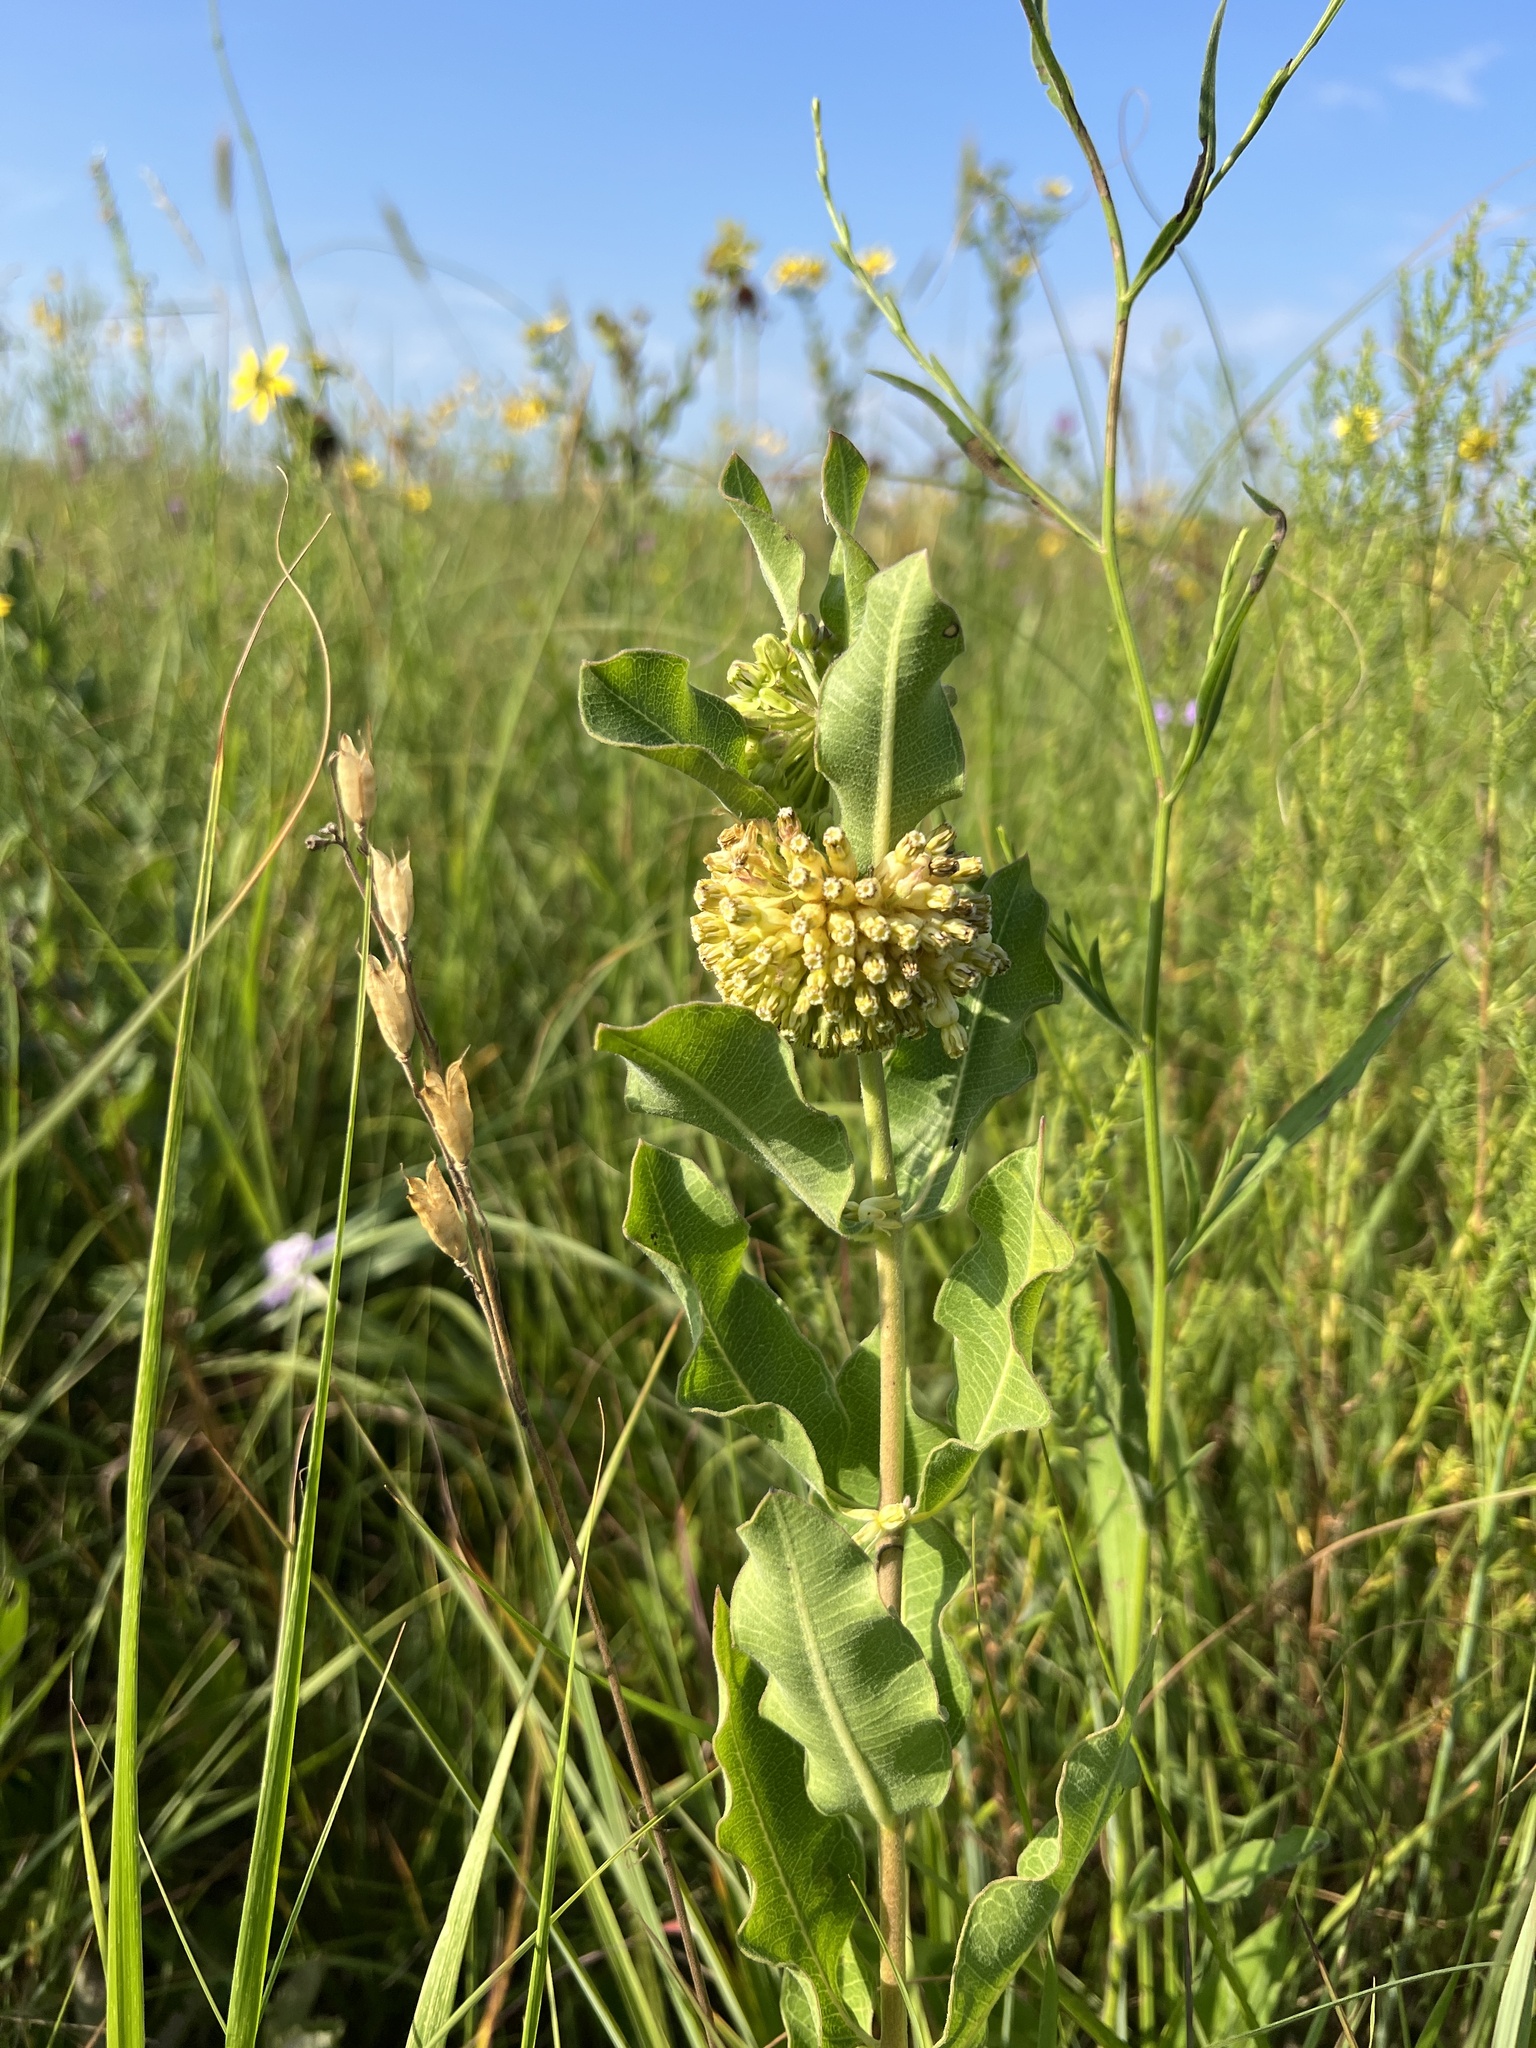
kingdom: Plantae
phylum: Tracheophyta
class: Magnoliopsida
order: Gentianales
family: Apocynaceae
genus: Asclepias
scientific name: Asclepias viridiflora
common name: Green comet milkweed
